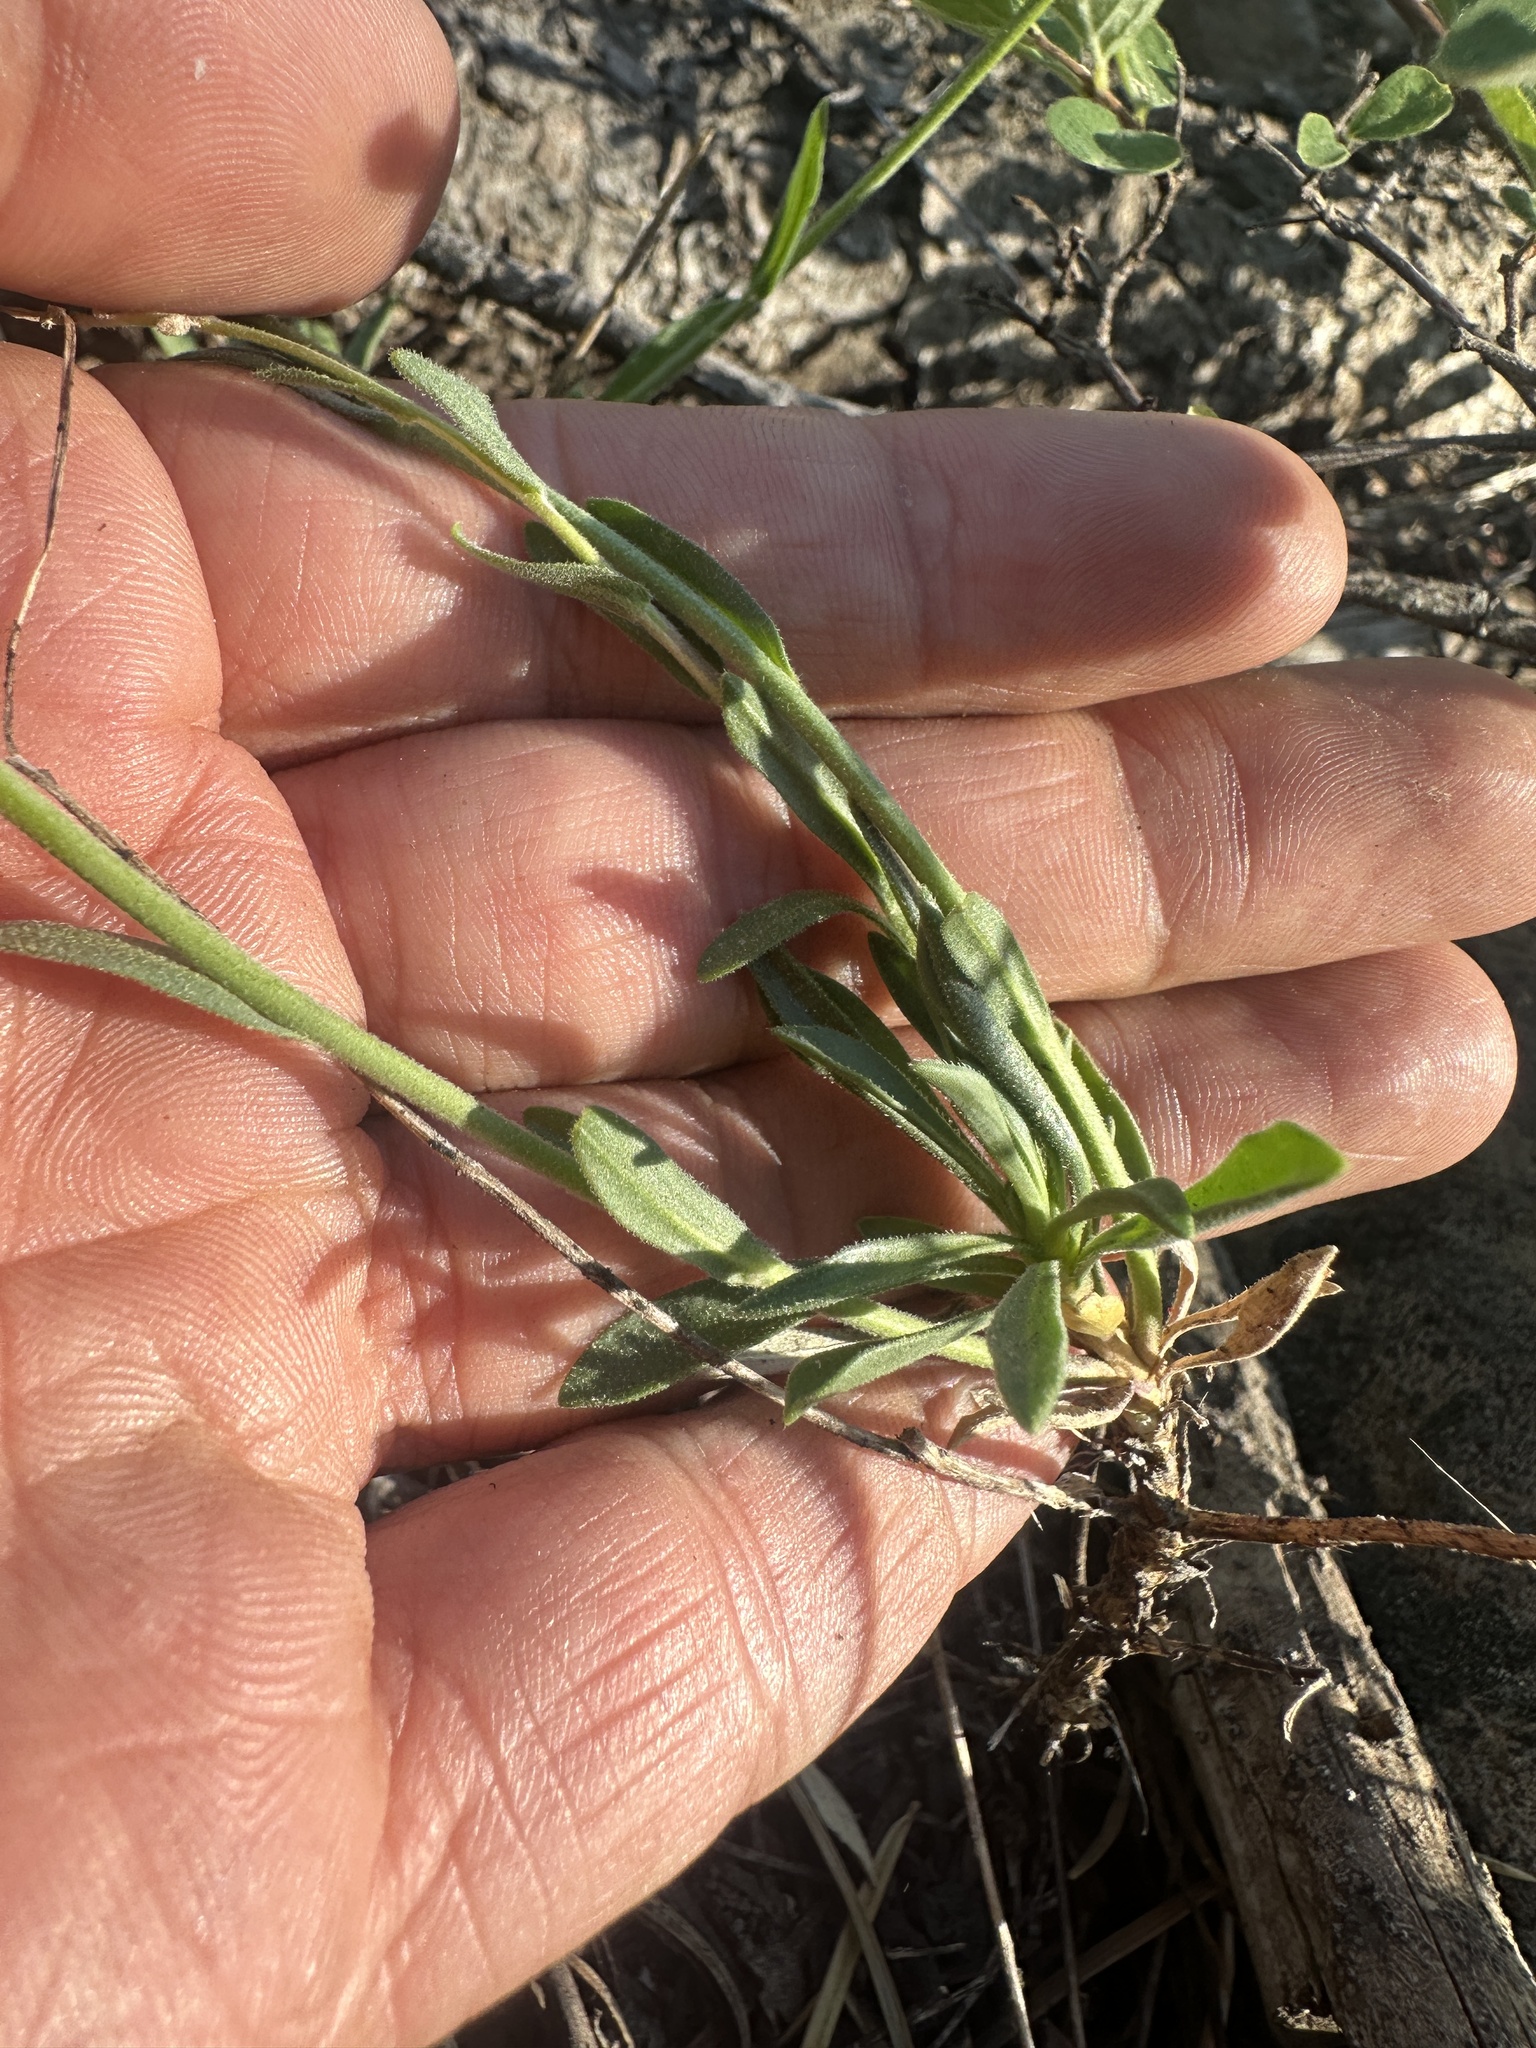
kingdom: Plantae
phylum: Tracheophyta
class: Magnoliopsida
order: Brassicales
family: Brassicaceae
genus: Boechera
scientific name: Boechera platysperma
